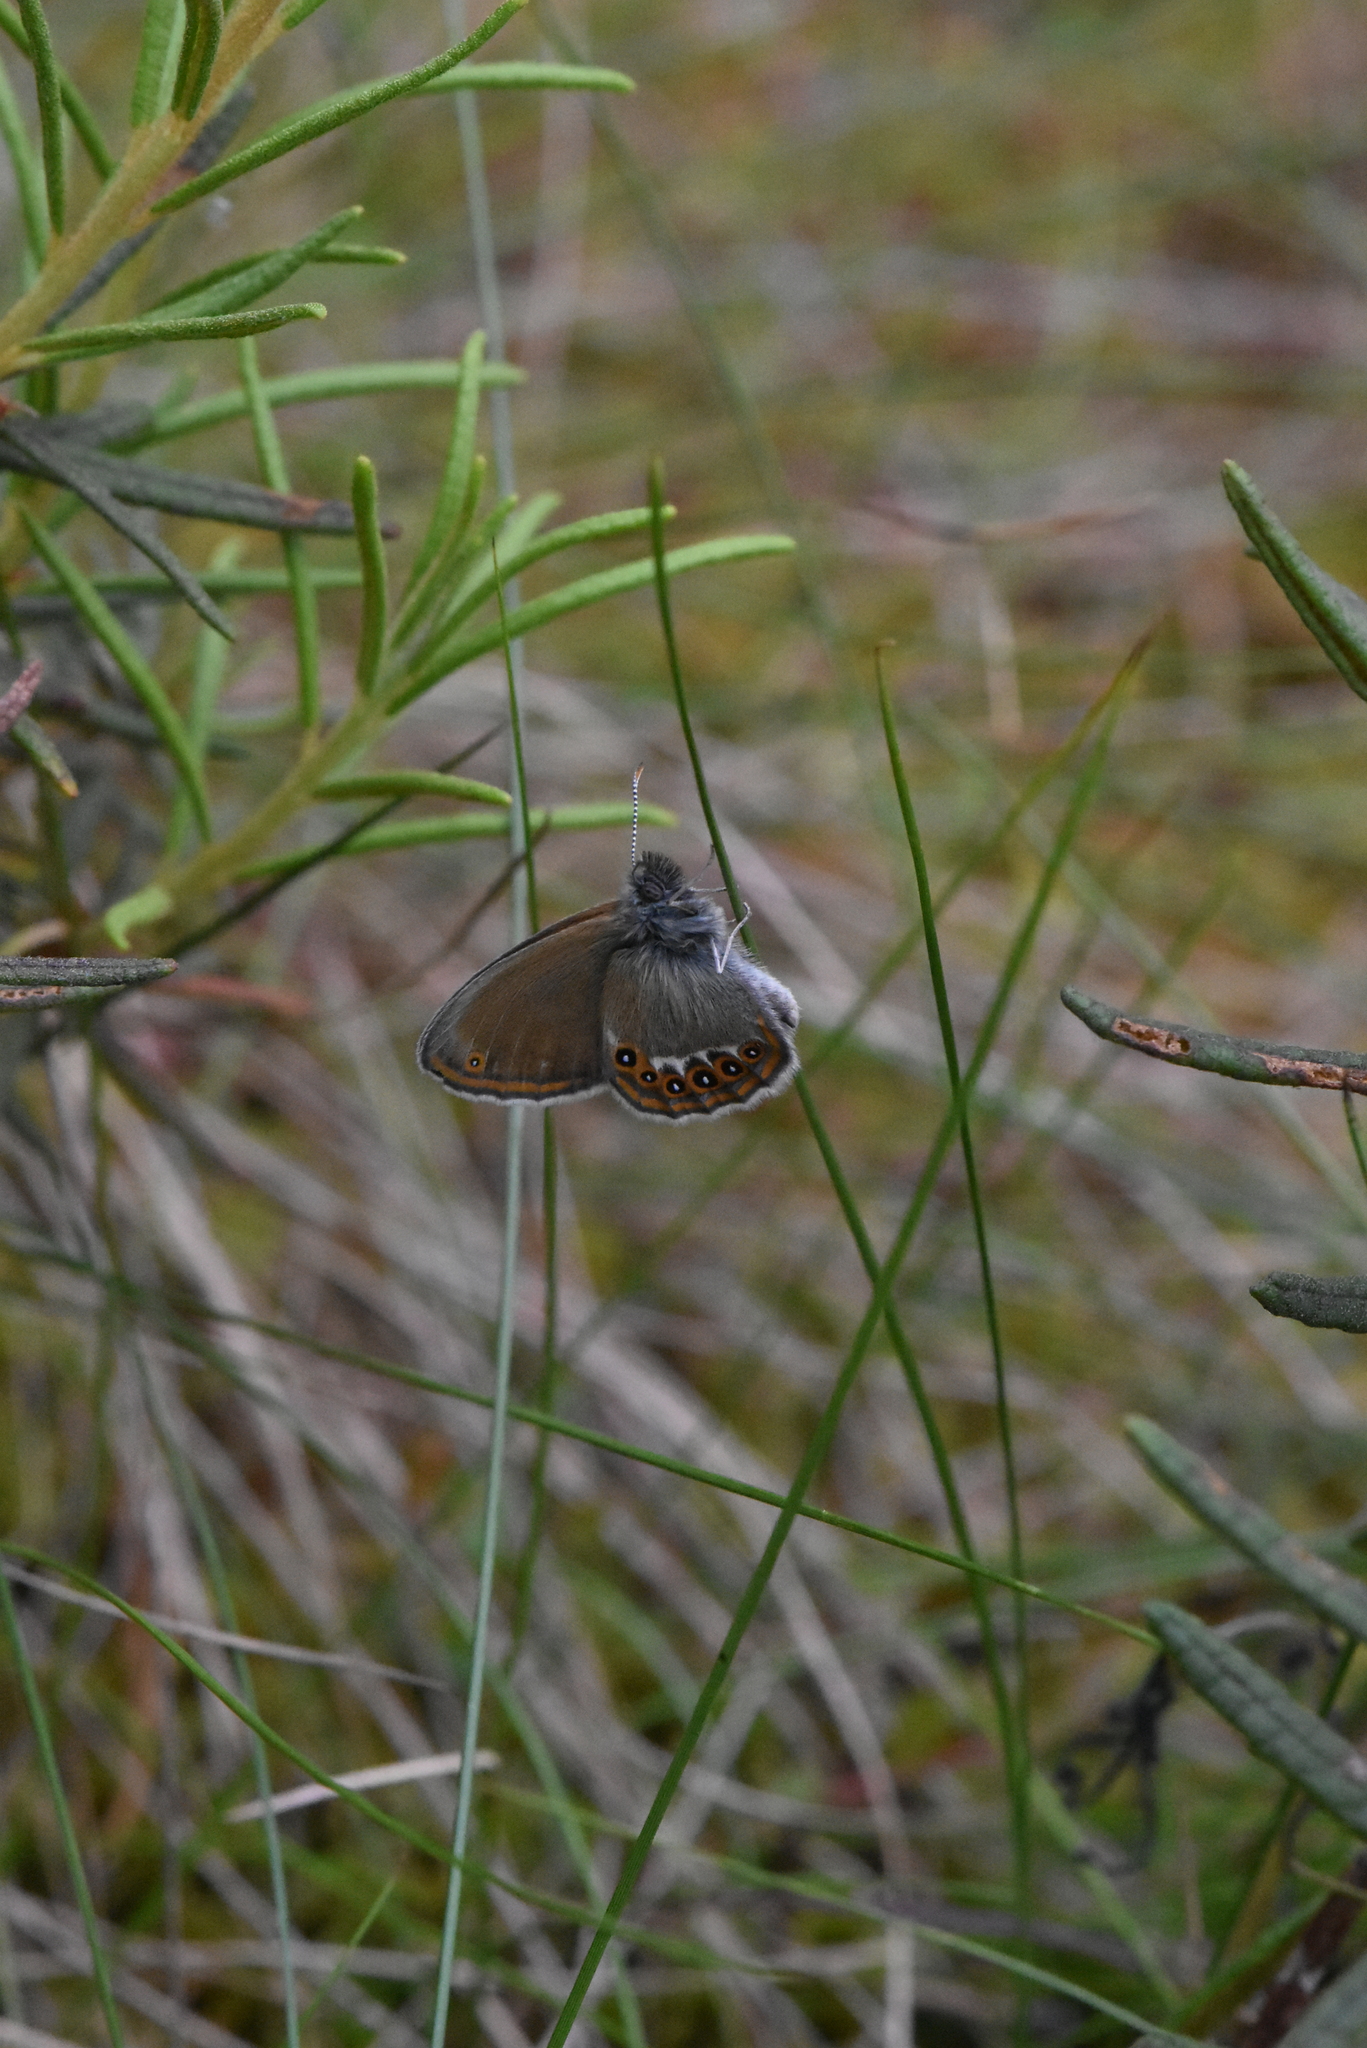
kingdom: Animalia
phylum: Arthropoda
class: Insecta
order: Lepidoptera
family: Nymphalidae
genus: Coenonympha
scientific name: Coenonympha hero
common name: Scarce heath
